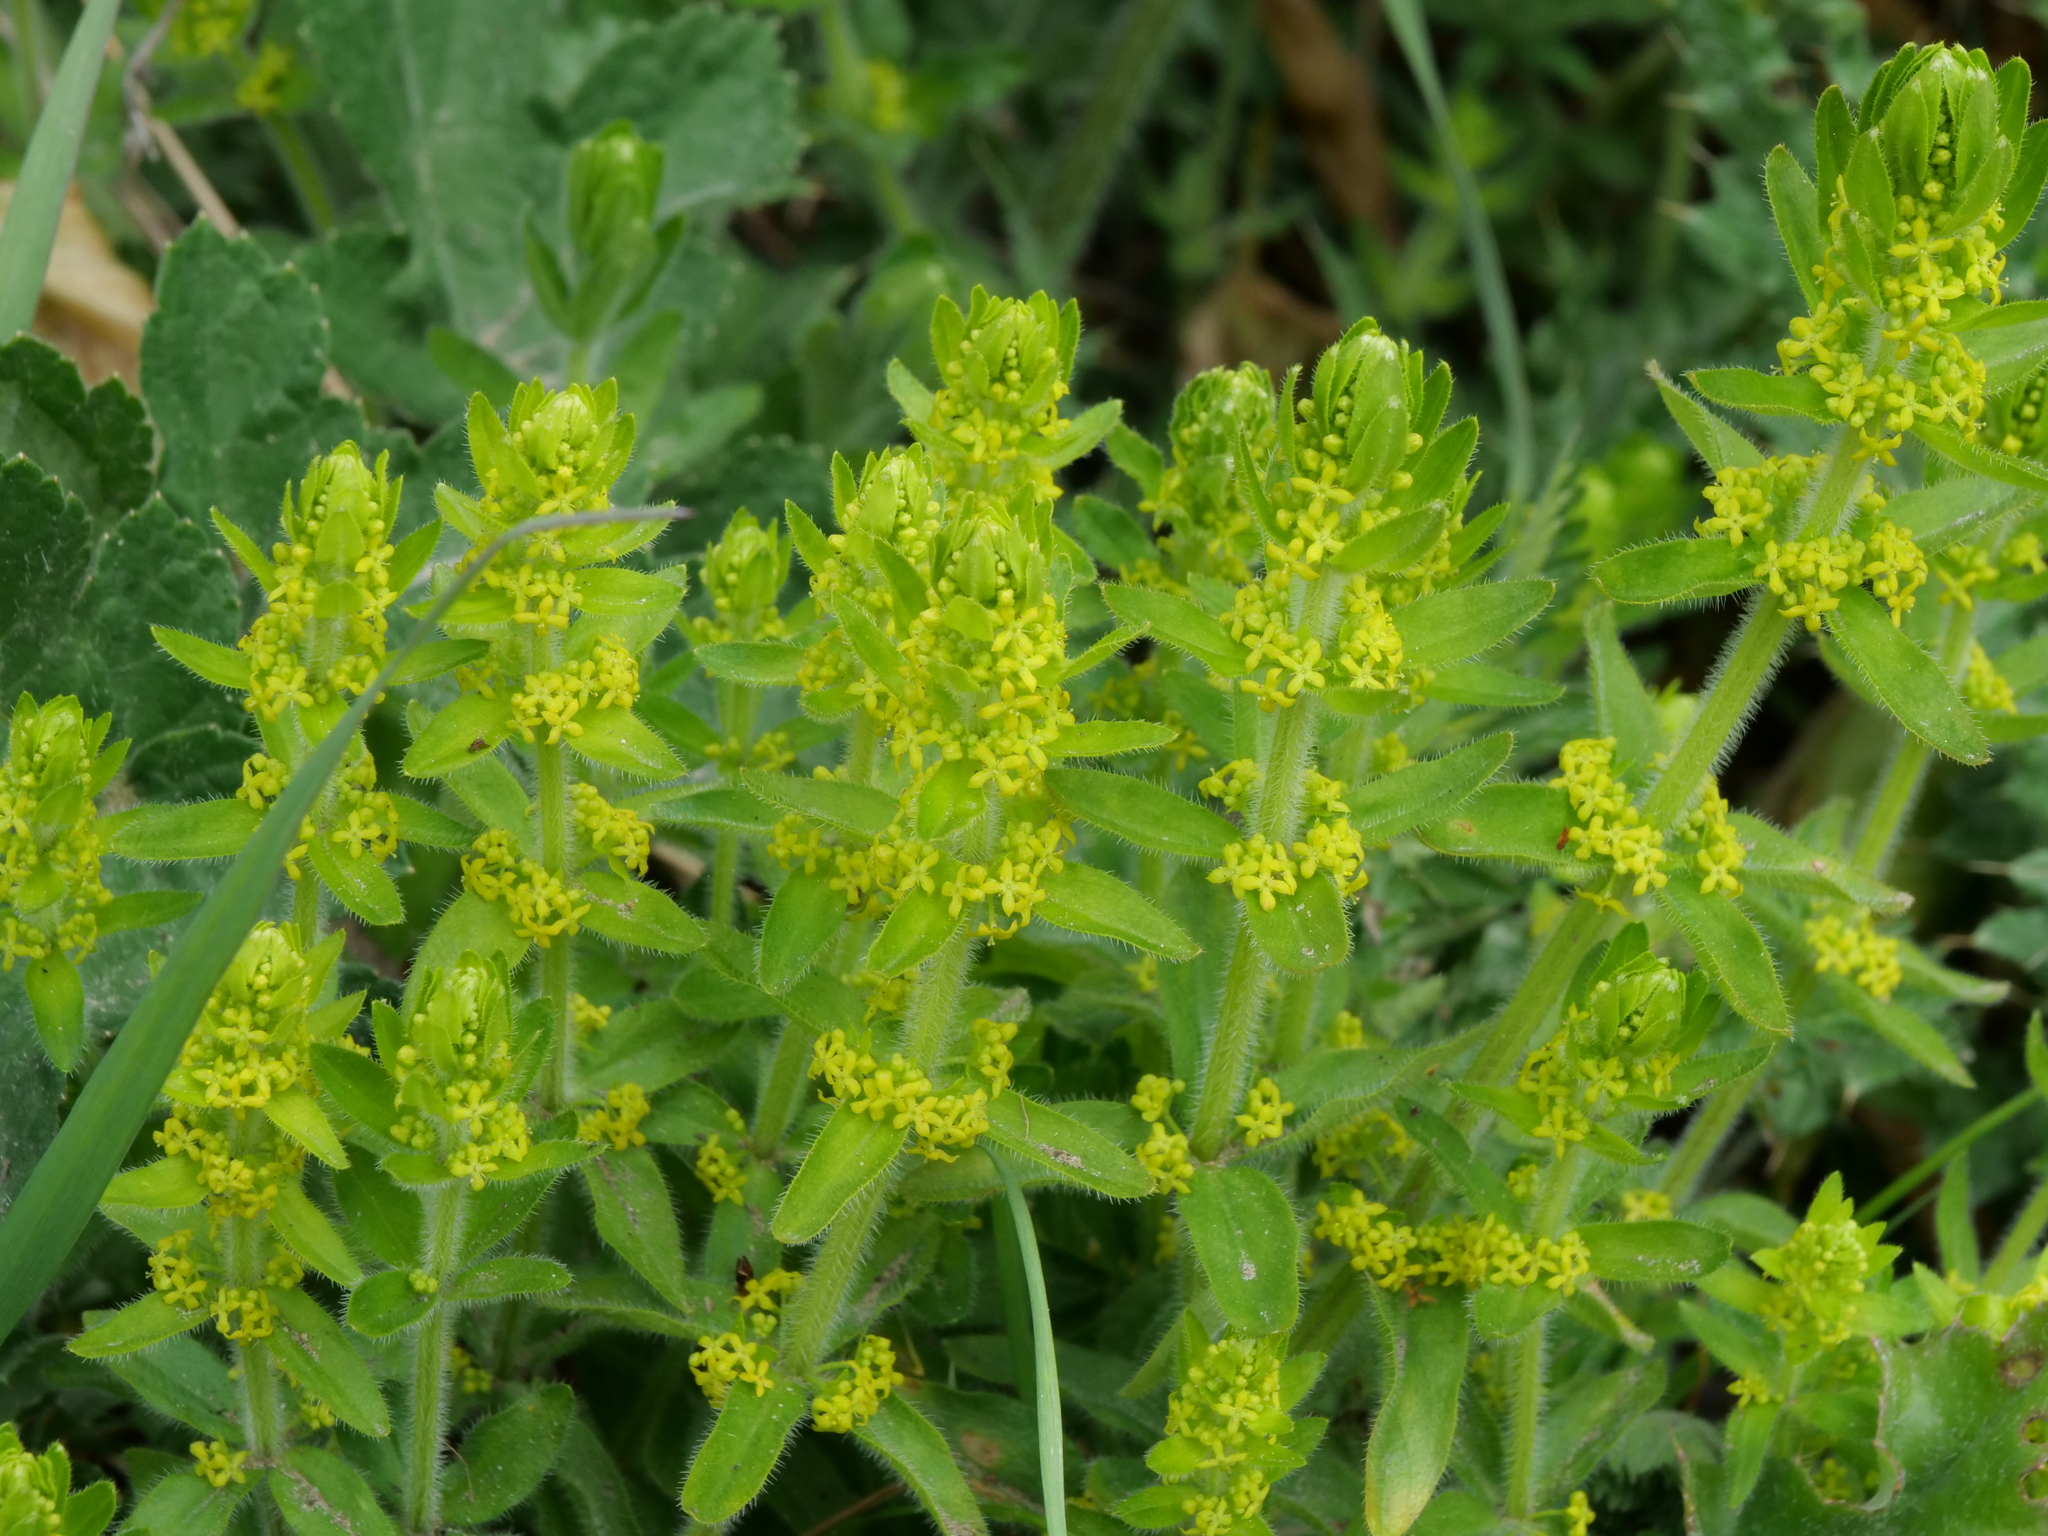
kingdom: Plantae
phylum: Tracheophyta
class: Magnoliopsida
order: Gentianales
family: Rubiaceae
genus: Cruciata
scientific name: Cruciata laevipes
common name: Crosswort
